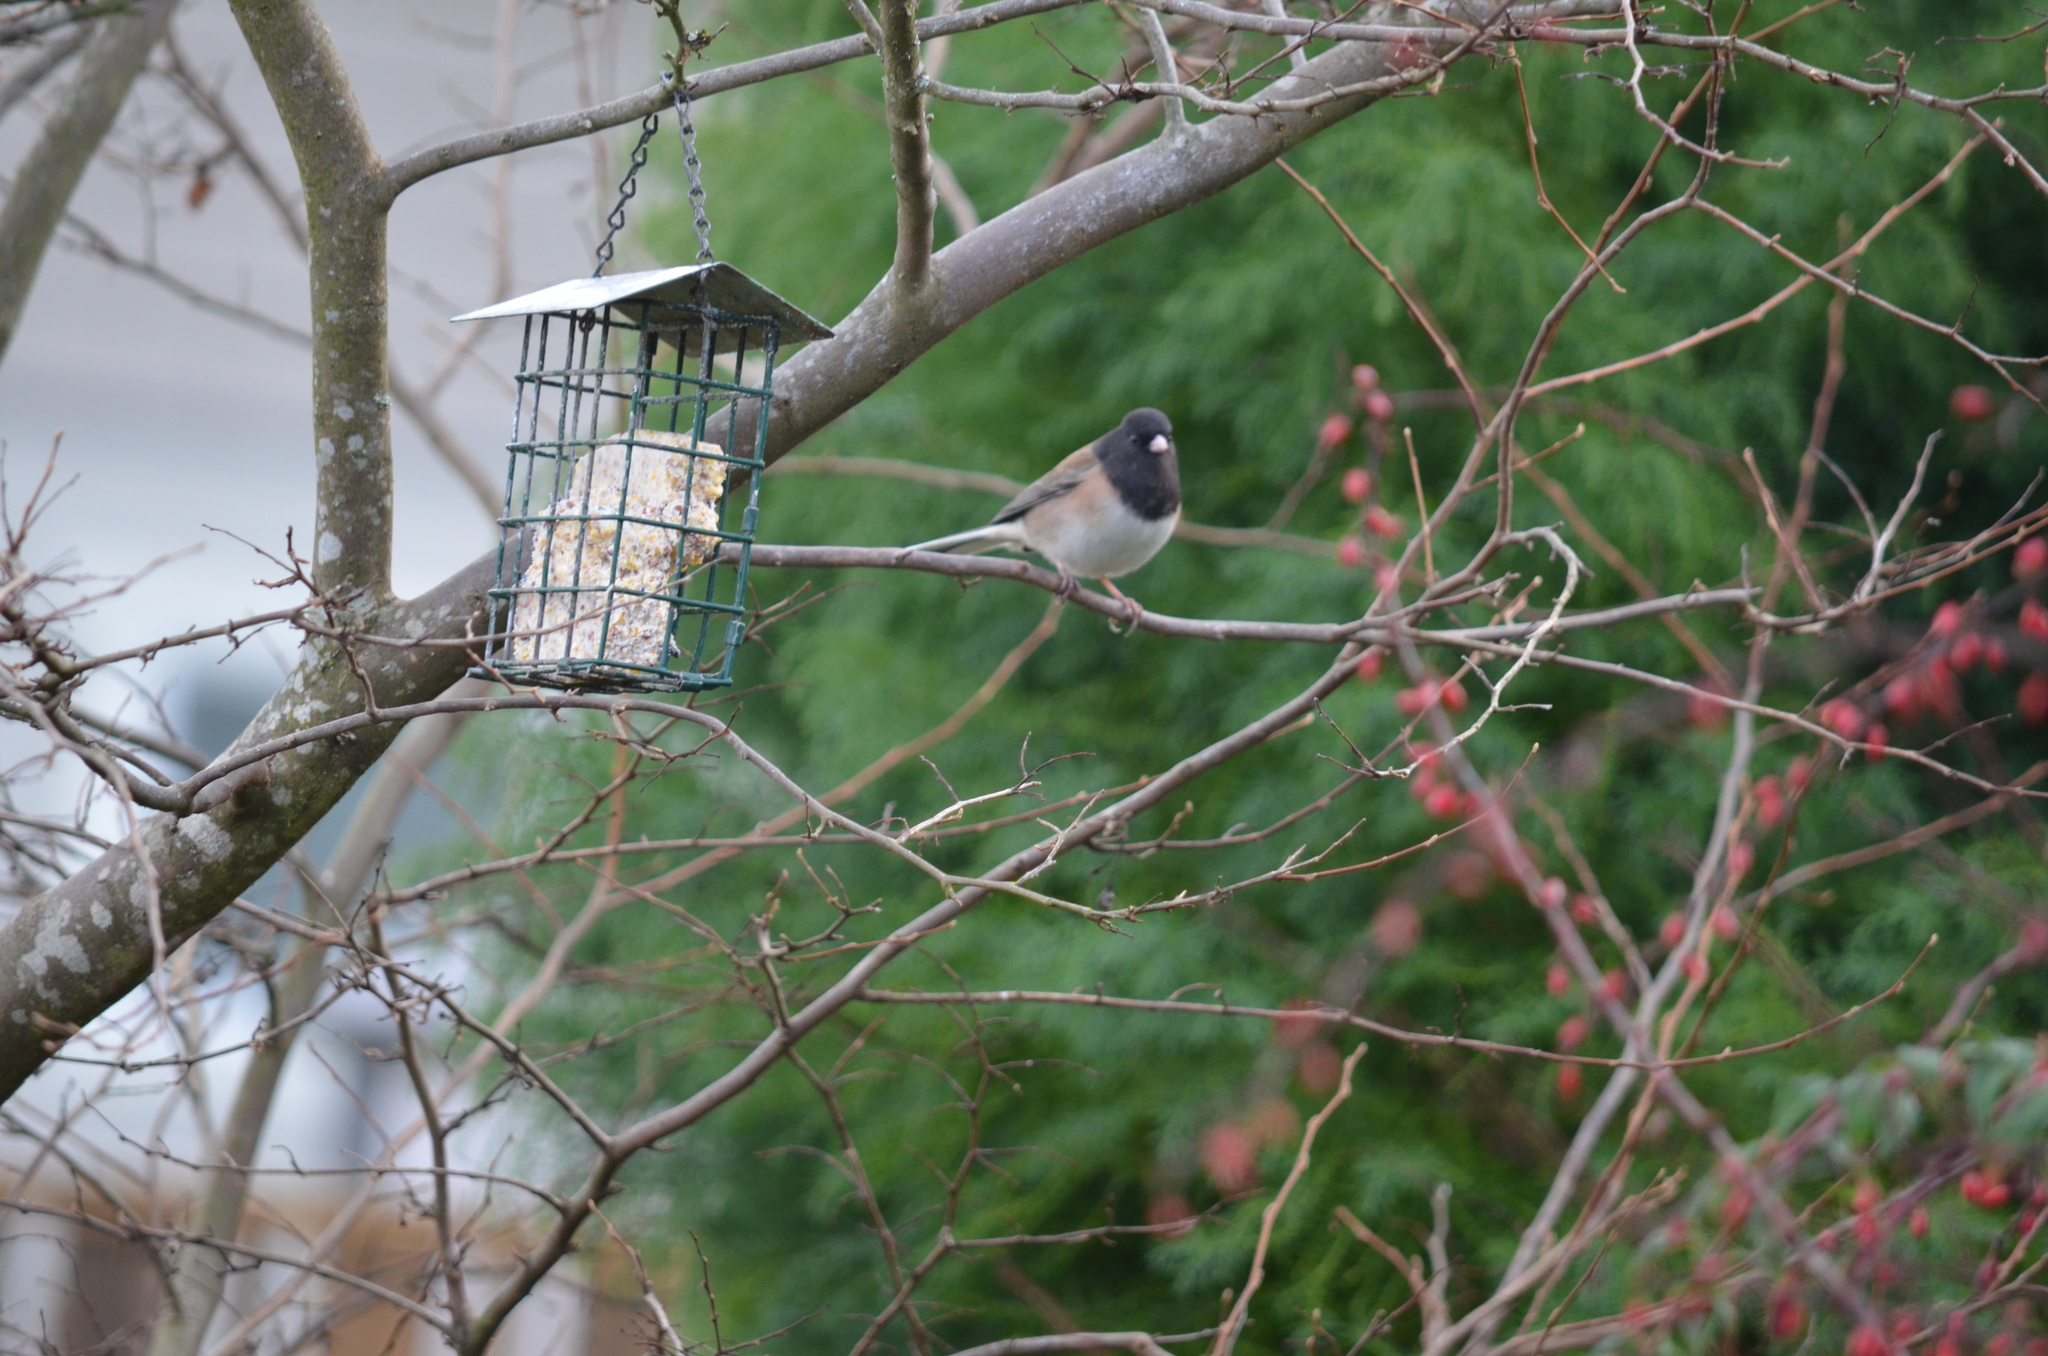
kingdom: Animalia
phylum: Chordata
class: Aves
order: Passeriformes
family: Passerellidae
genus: Junco
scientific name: Junco hyemalis
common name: Dark-eyed junco
